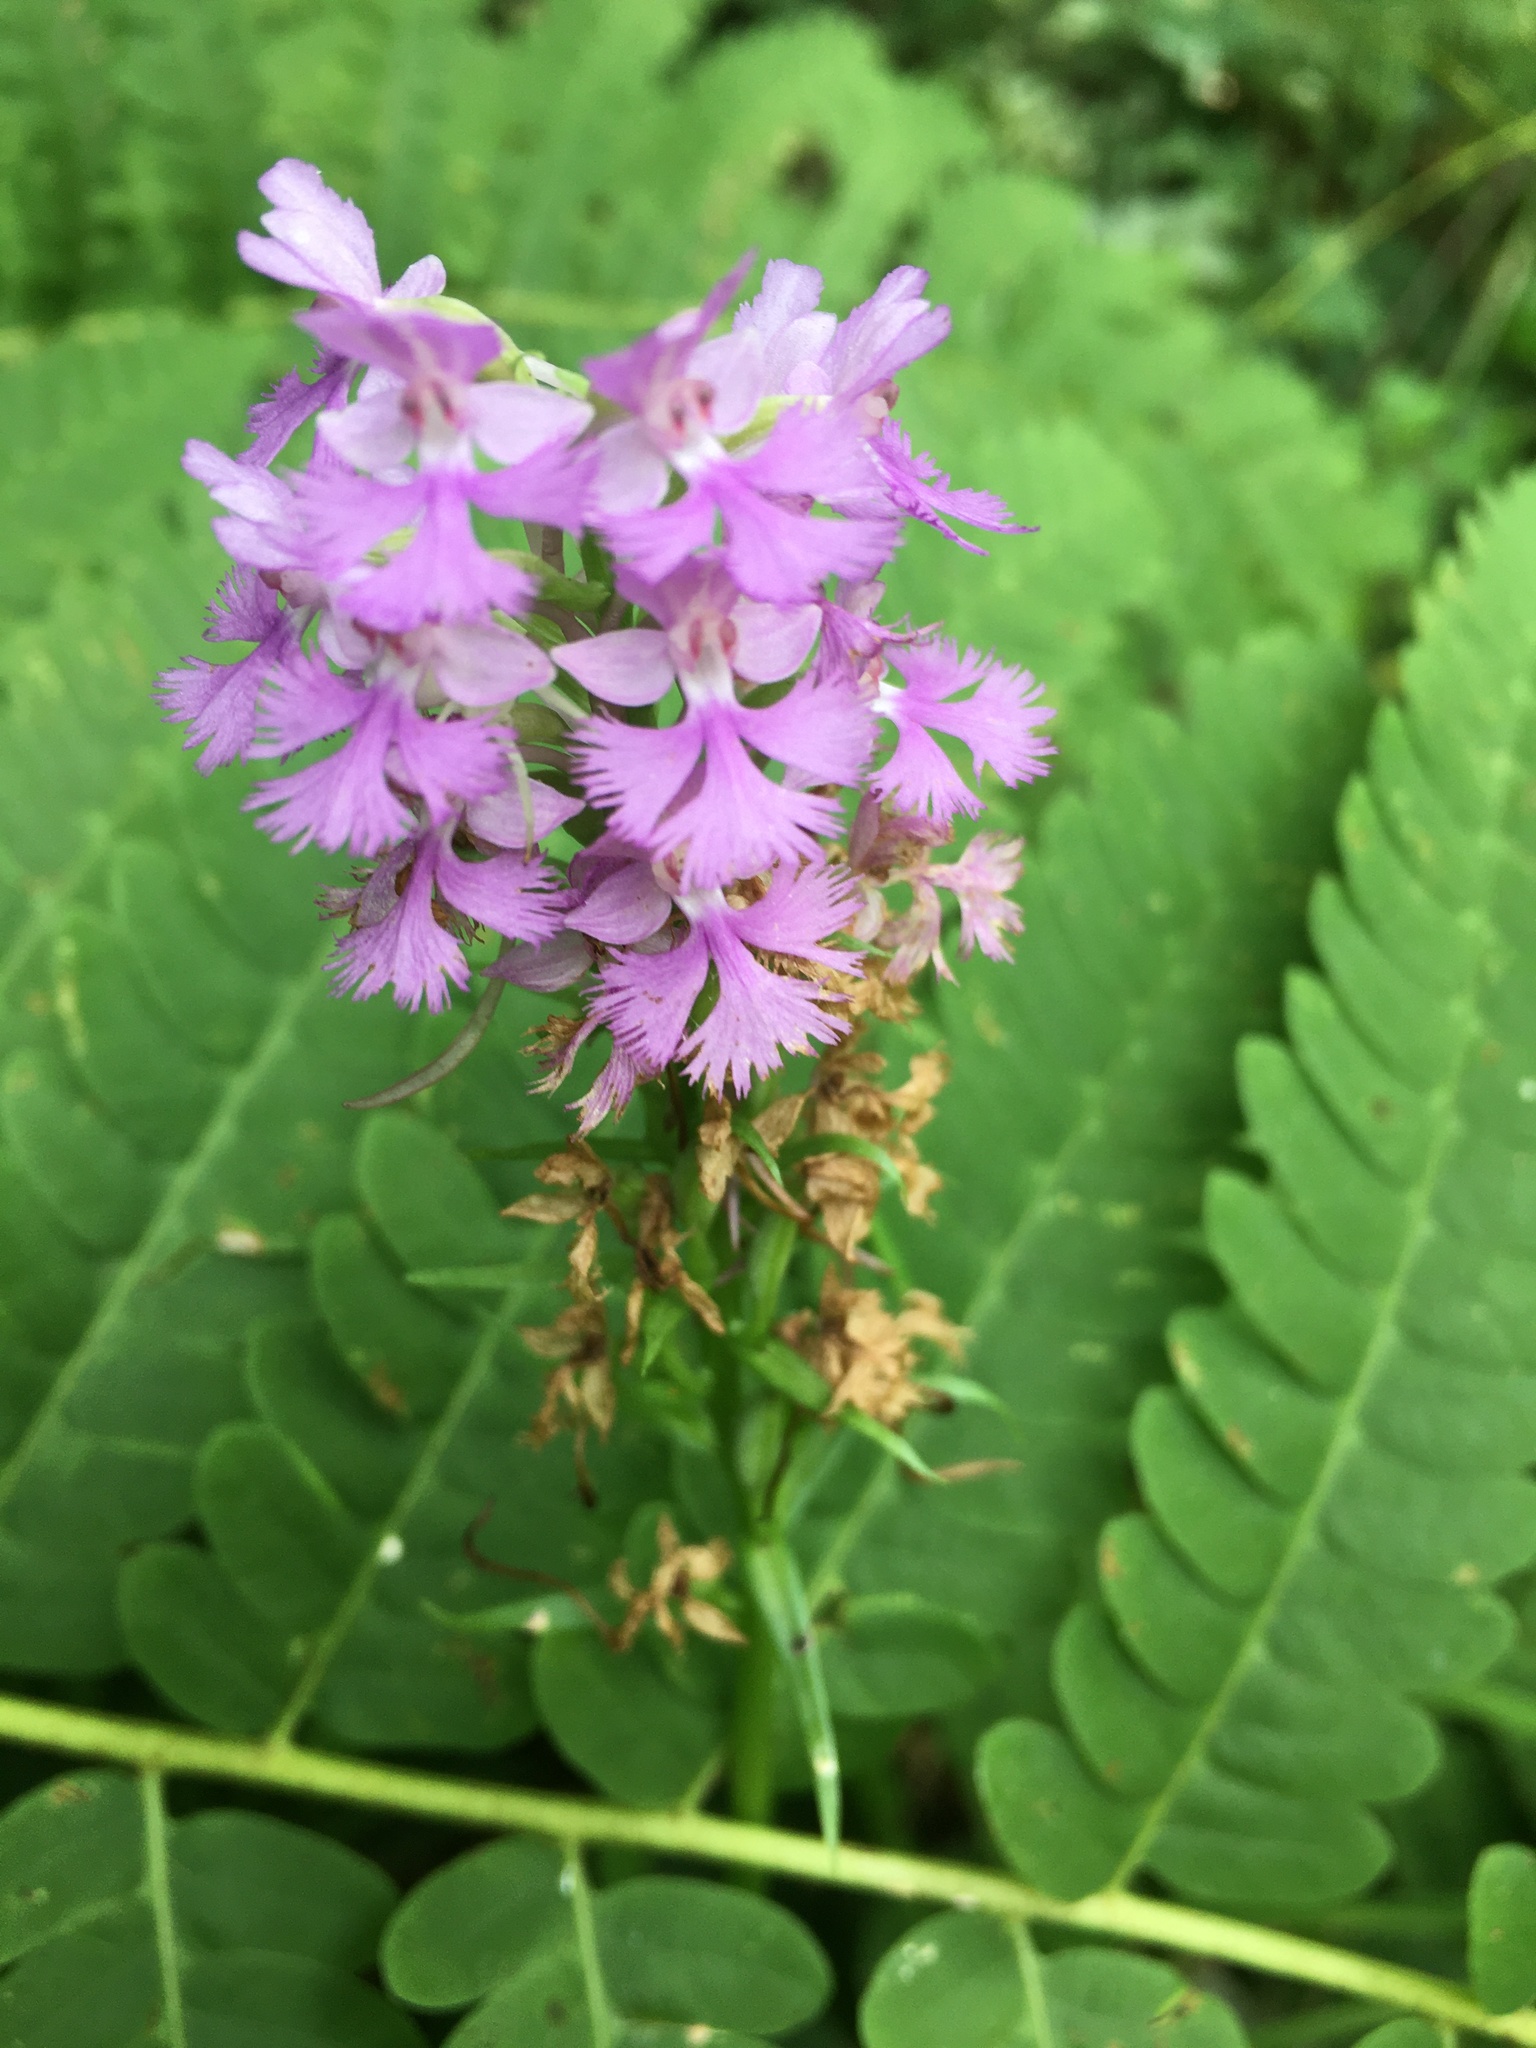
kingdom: Plantae
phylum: Tracheophyta
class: Liliopsida
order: Asparagales
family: Orchidaceae
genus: Platanthera
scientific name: Platanthera psycodes
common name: Lesser purple fringed orchid
